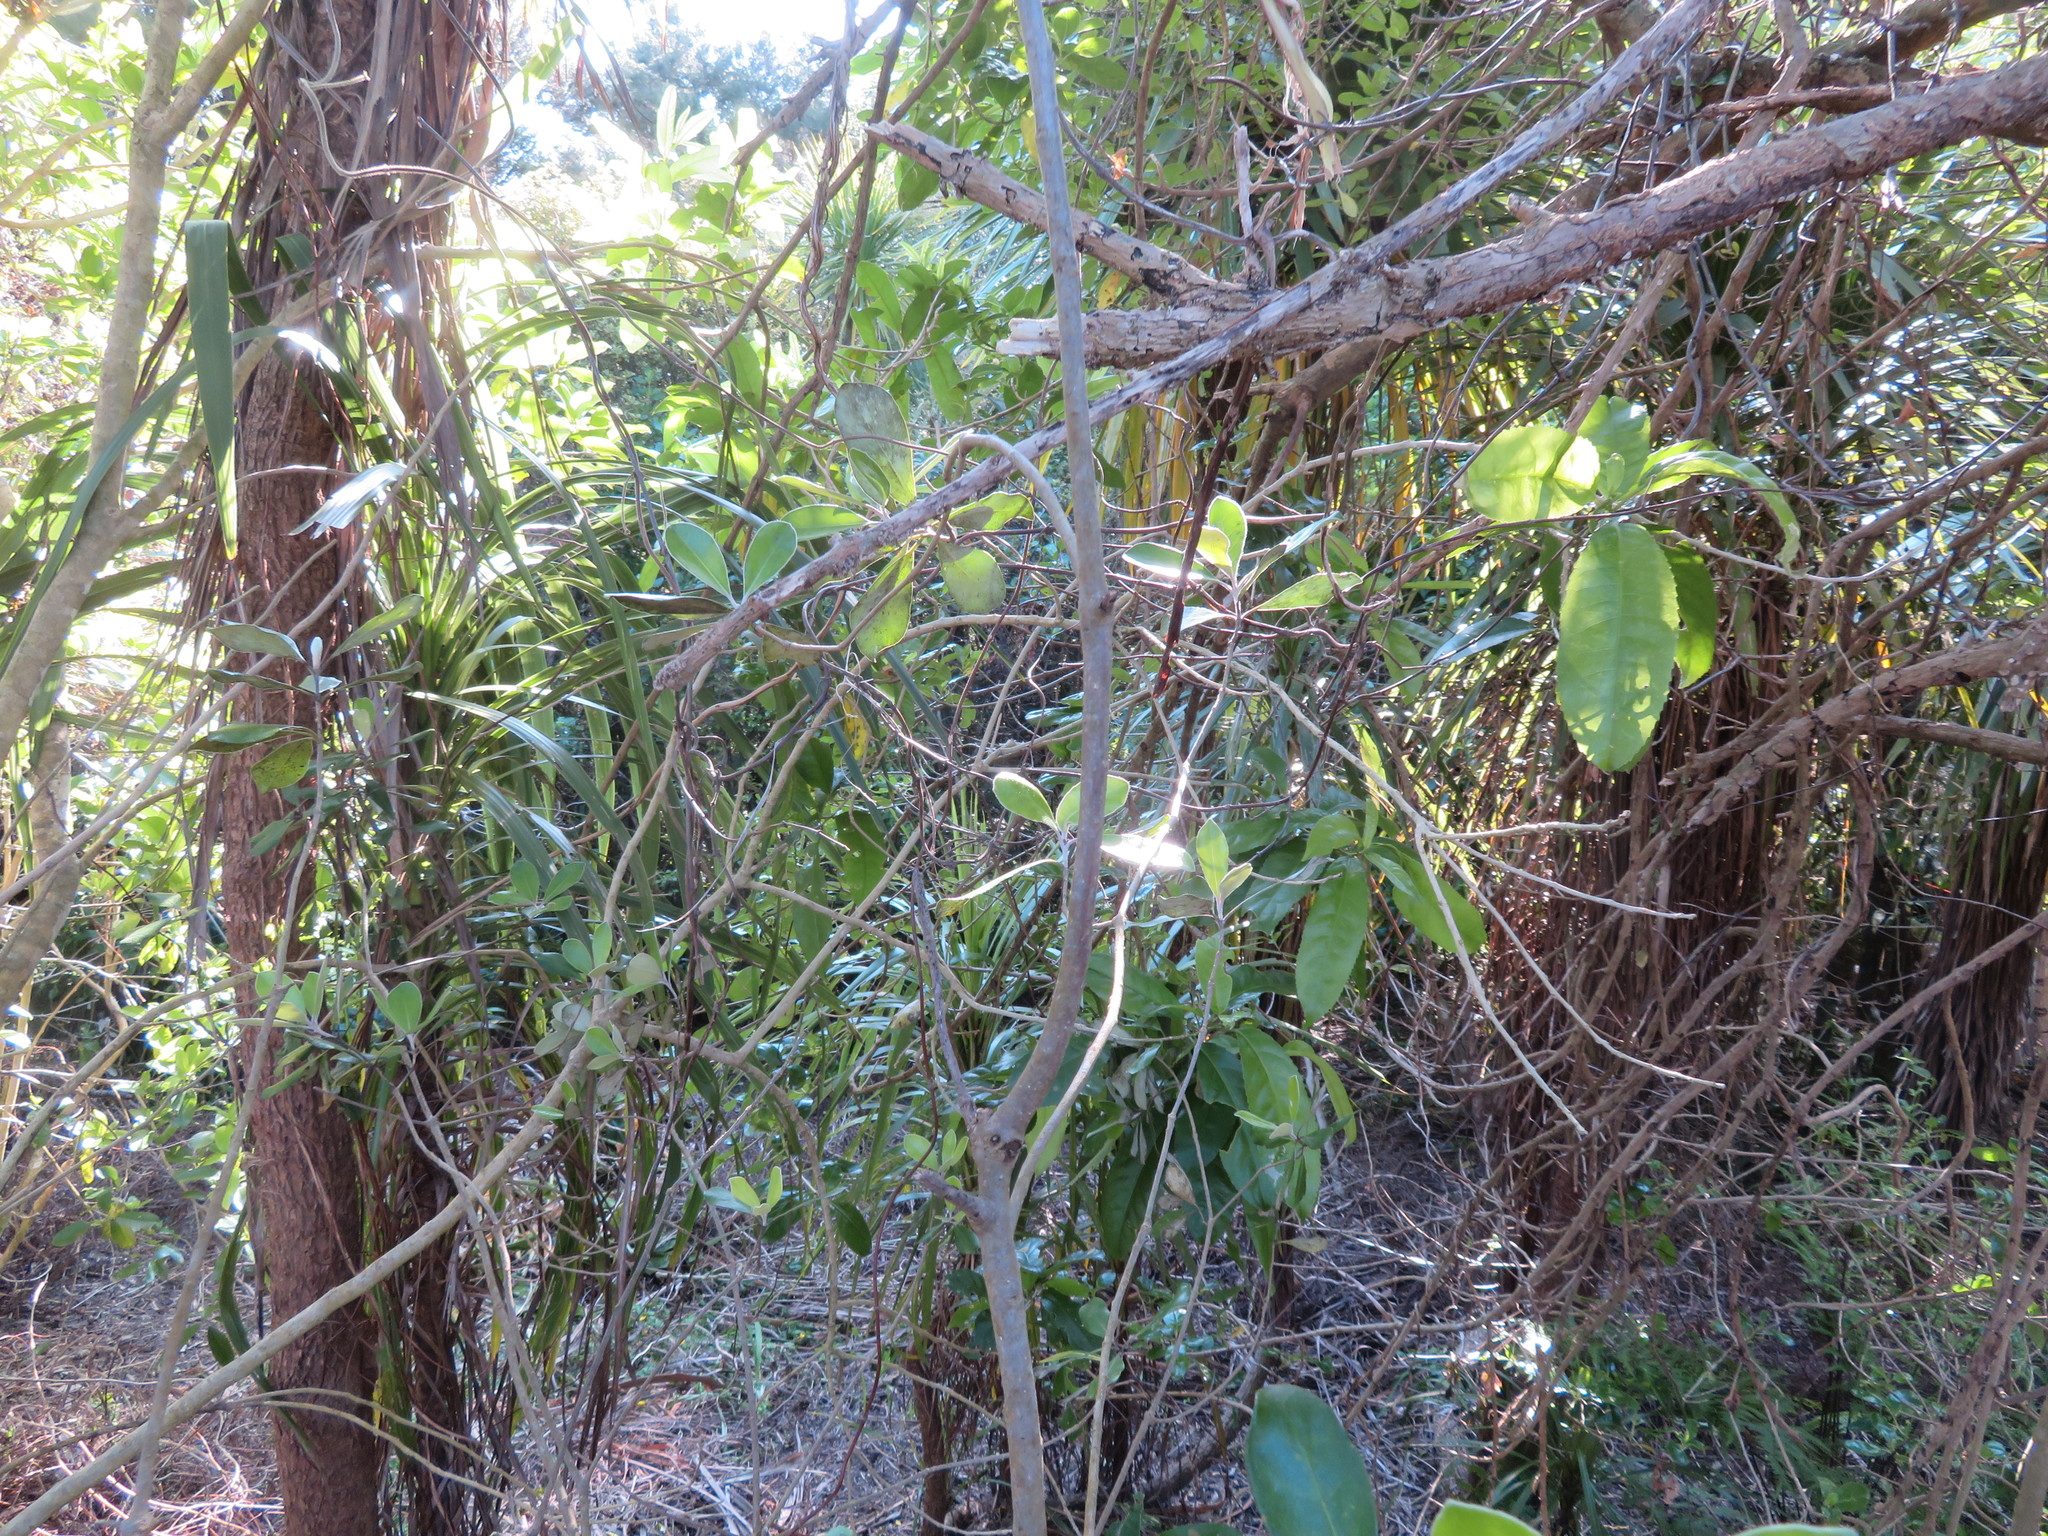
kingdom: Plantae
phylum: Tracheophyta
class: Magnoliopsida
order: Apiales
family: Pittosporaceae
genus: Pittosporum
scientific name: Pittosporum crassifolium
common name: Karo
